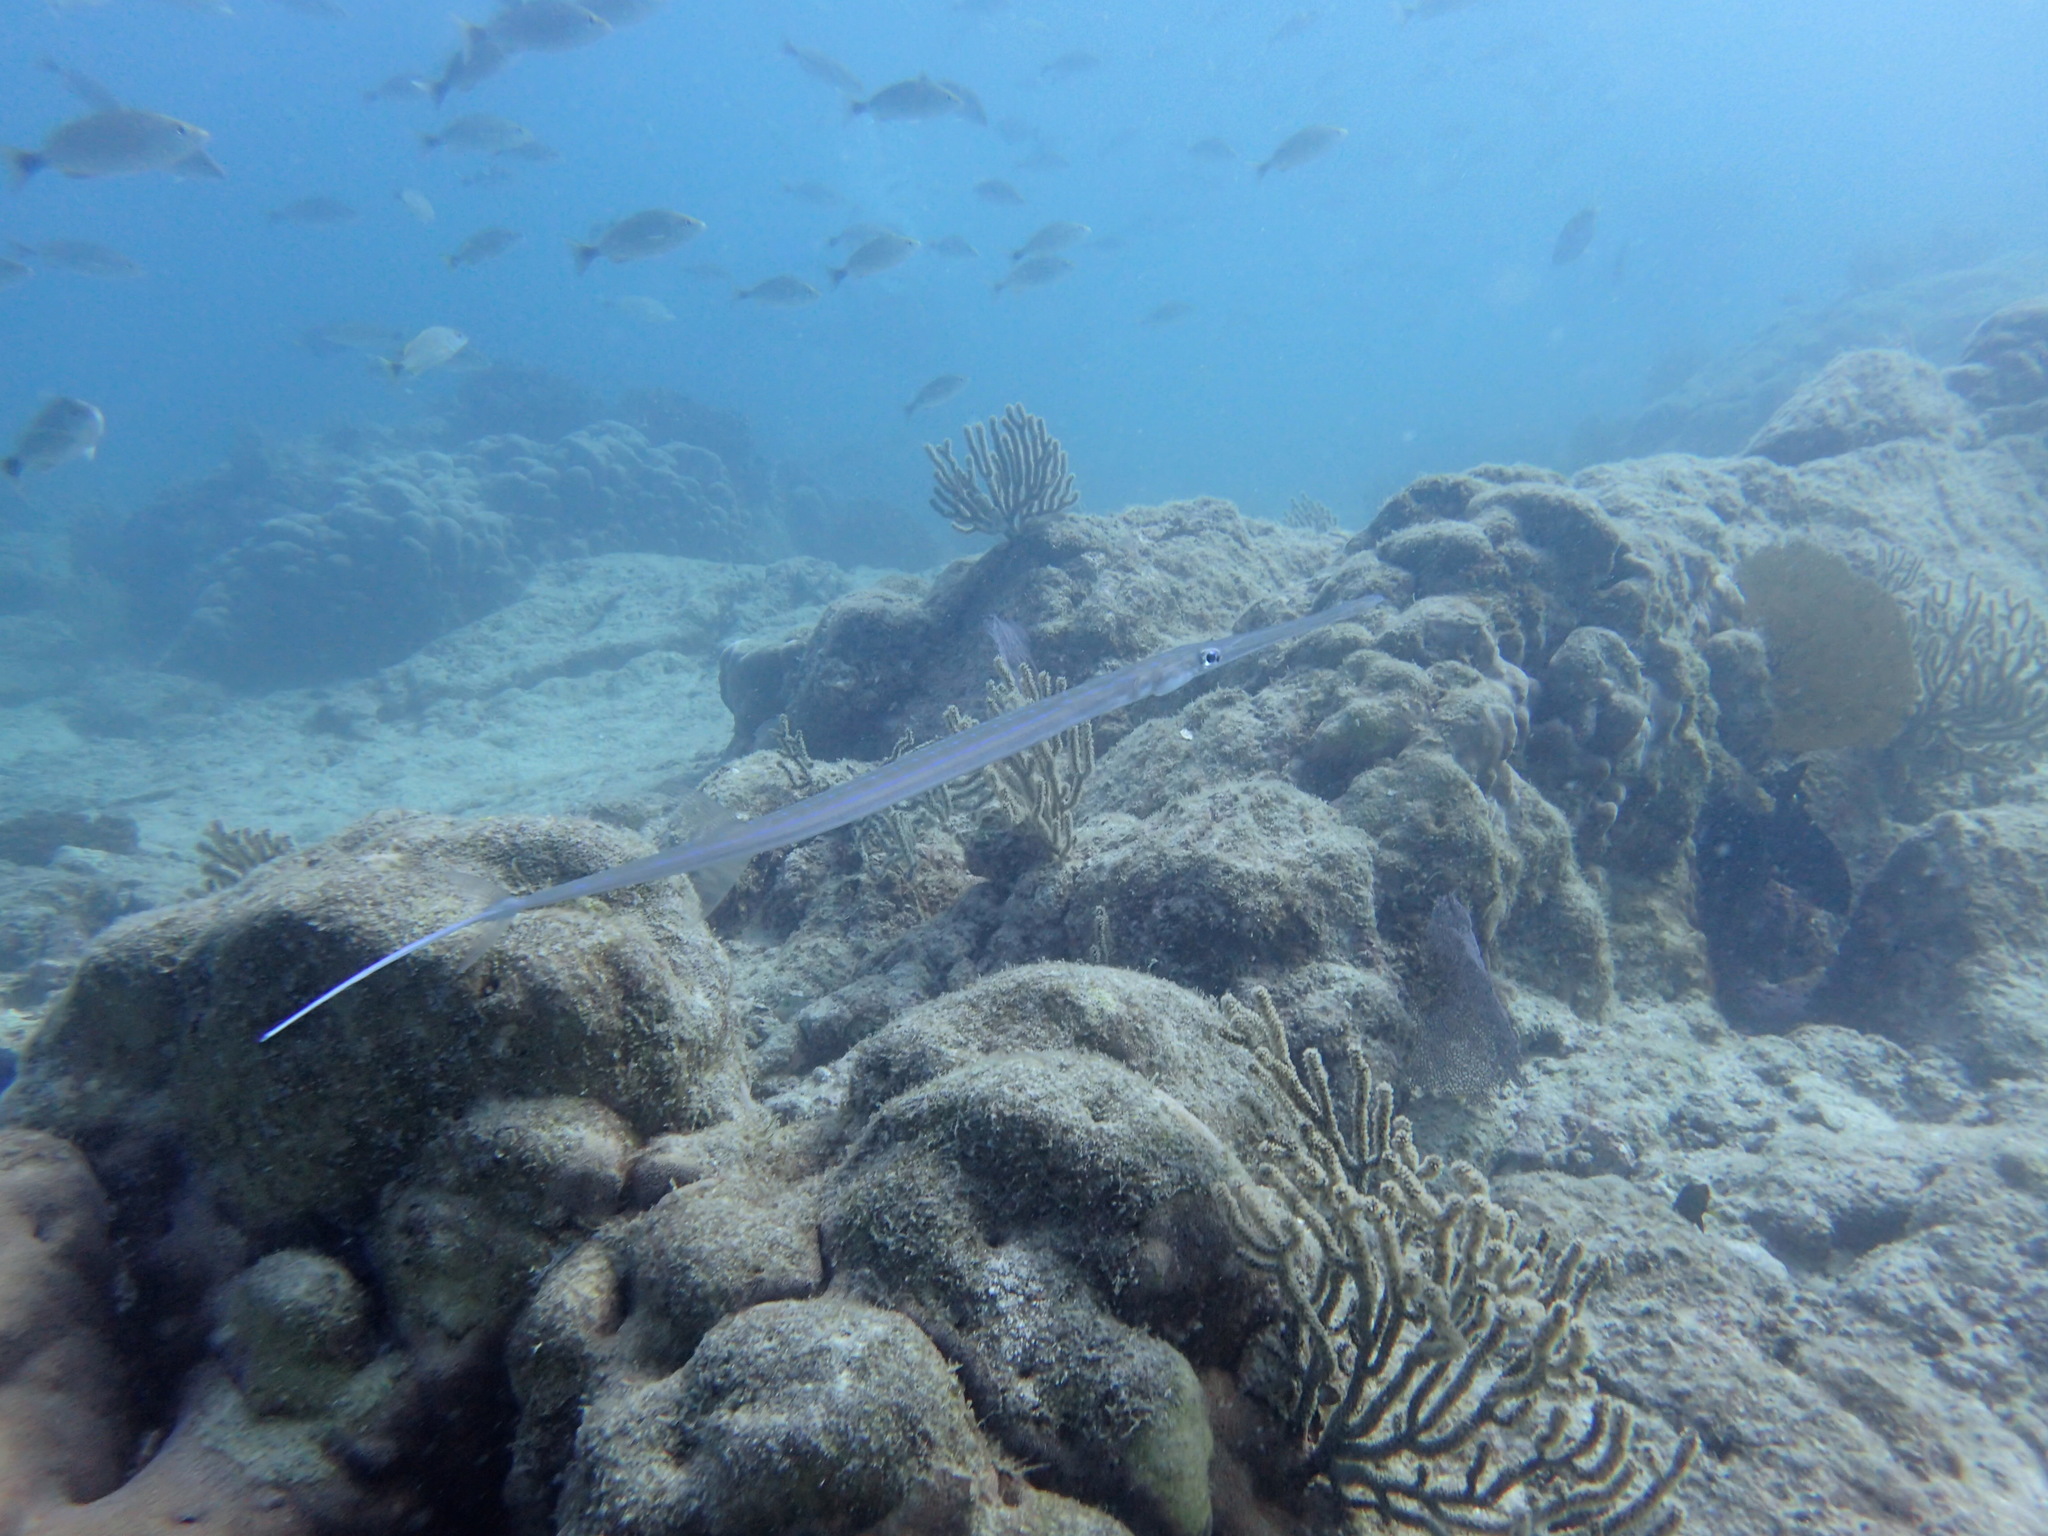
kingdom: Animalia
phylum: Chordata
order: Syngnathiformes
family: Fistulariidae
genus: Fistularia
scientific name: Fistularia commersonii
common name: Bluespotted cornetfish
